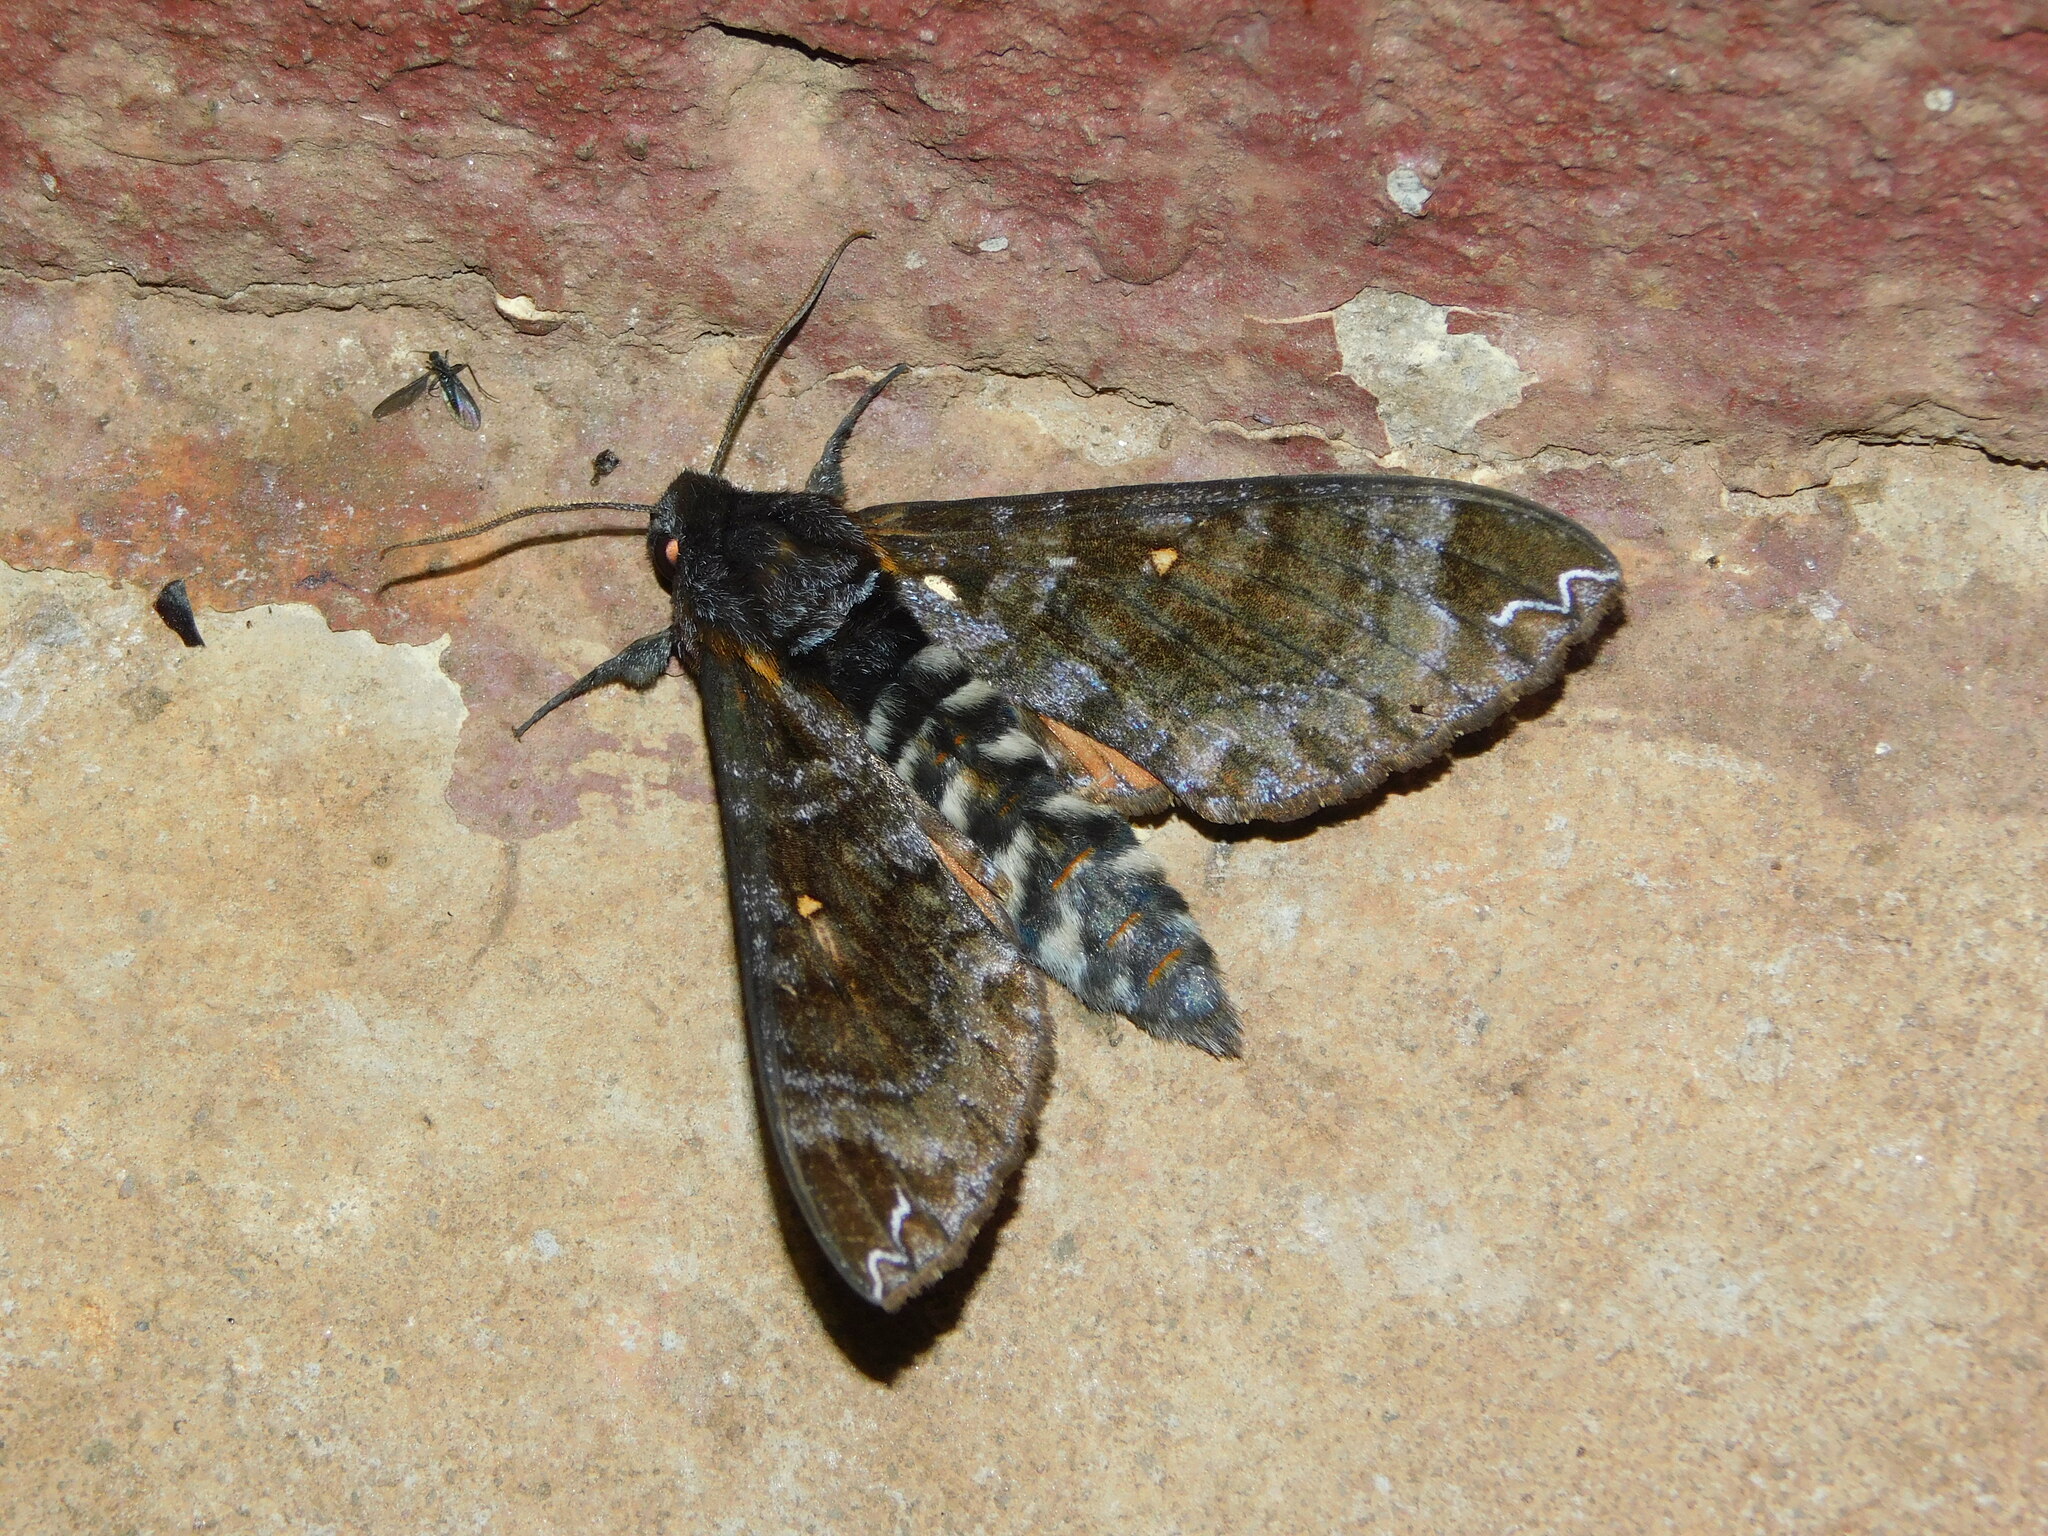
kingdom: Animalia
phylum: Arthropoda
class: Insecta
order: Lepidoptera
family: Sphingidae
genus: Dovania
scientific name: Dovania poecila
